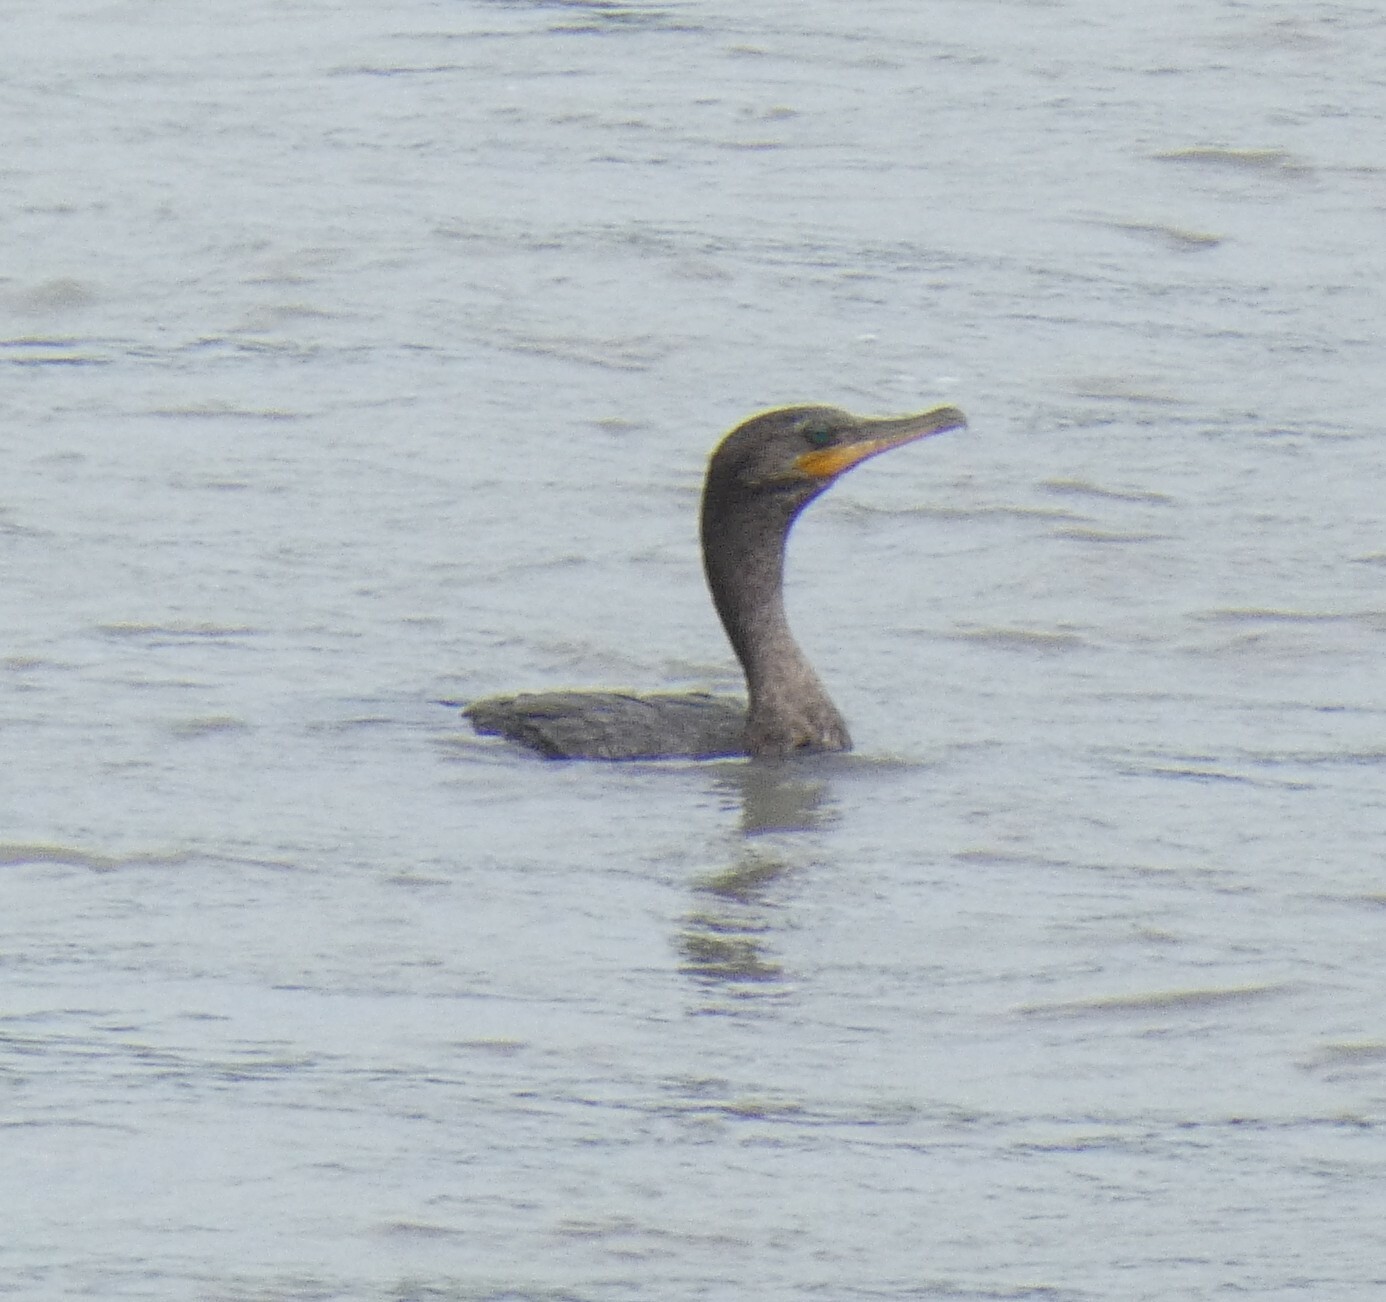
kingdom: Animalia
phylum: Chordata
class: Aves
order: Suliformes
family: Phalacrocoracidae
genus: Phalacrocorax
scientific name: Phalacrocorax brasilianus
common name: Neotropic cormorant
